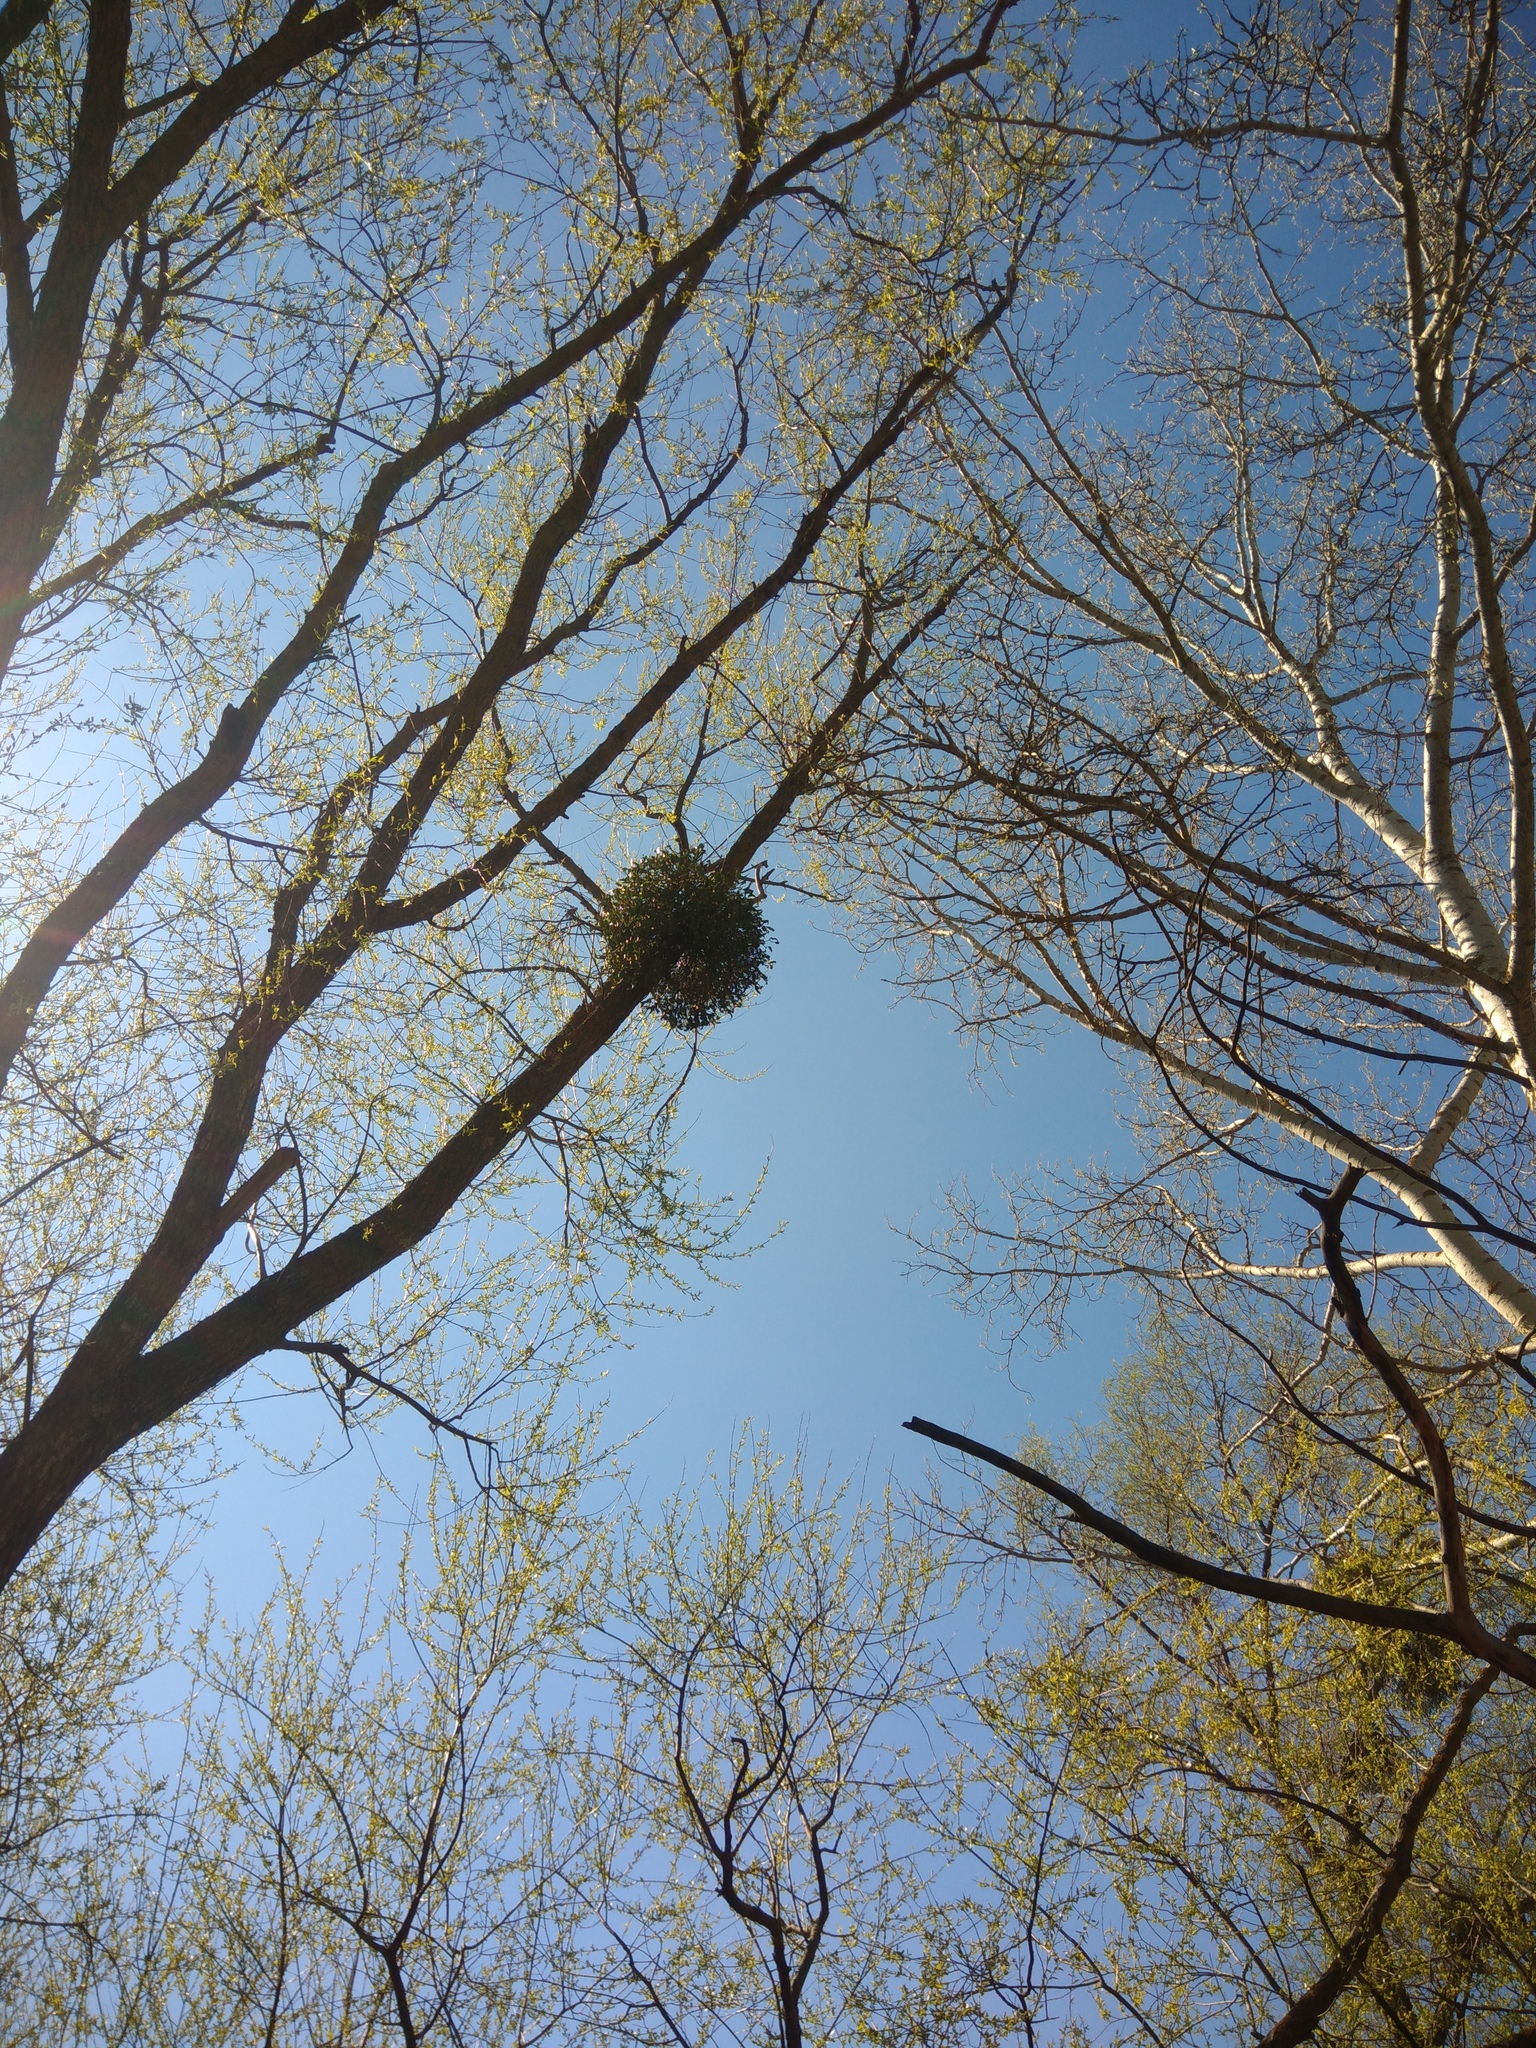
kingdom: Plantae
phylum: Tracheophyta
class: Magnoliopsida
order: Santalales
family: Viscaceae
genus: Viscum
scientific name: Viscum album
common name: Mistletoe
